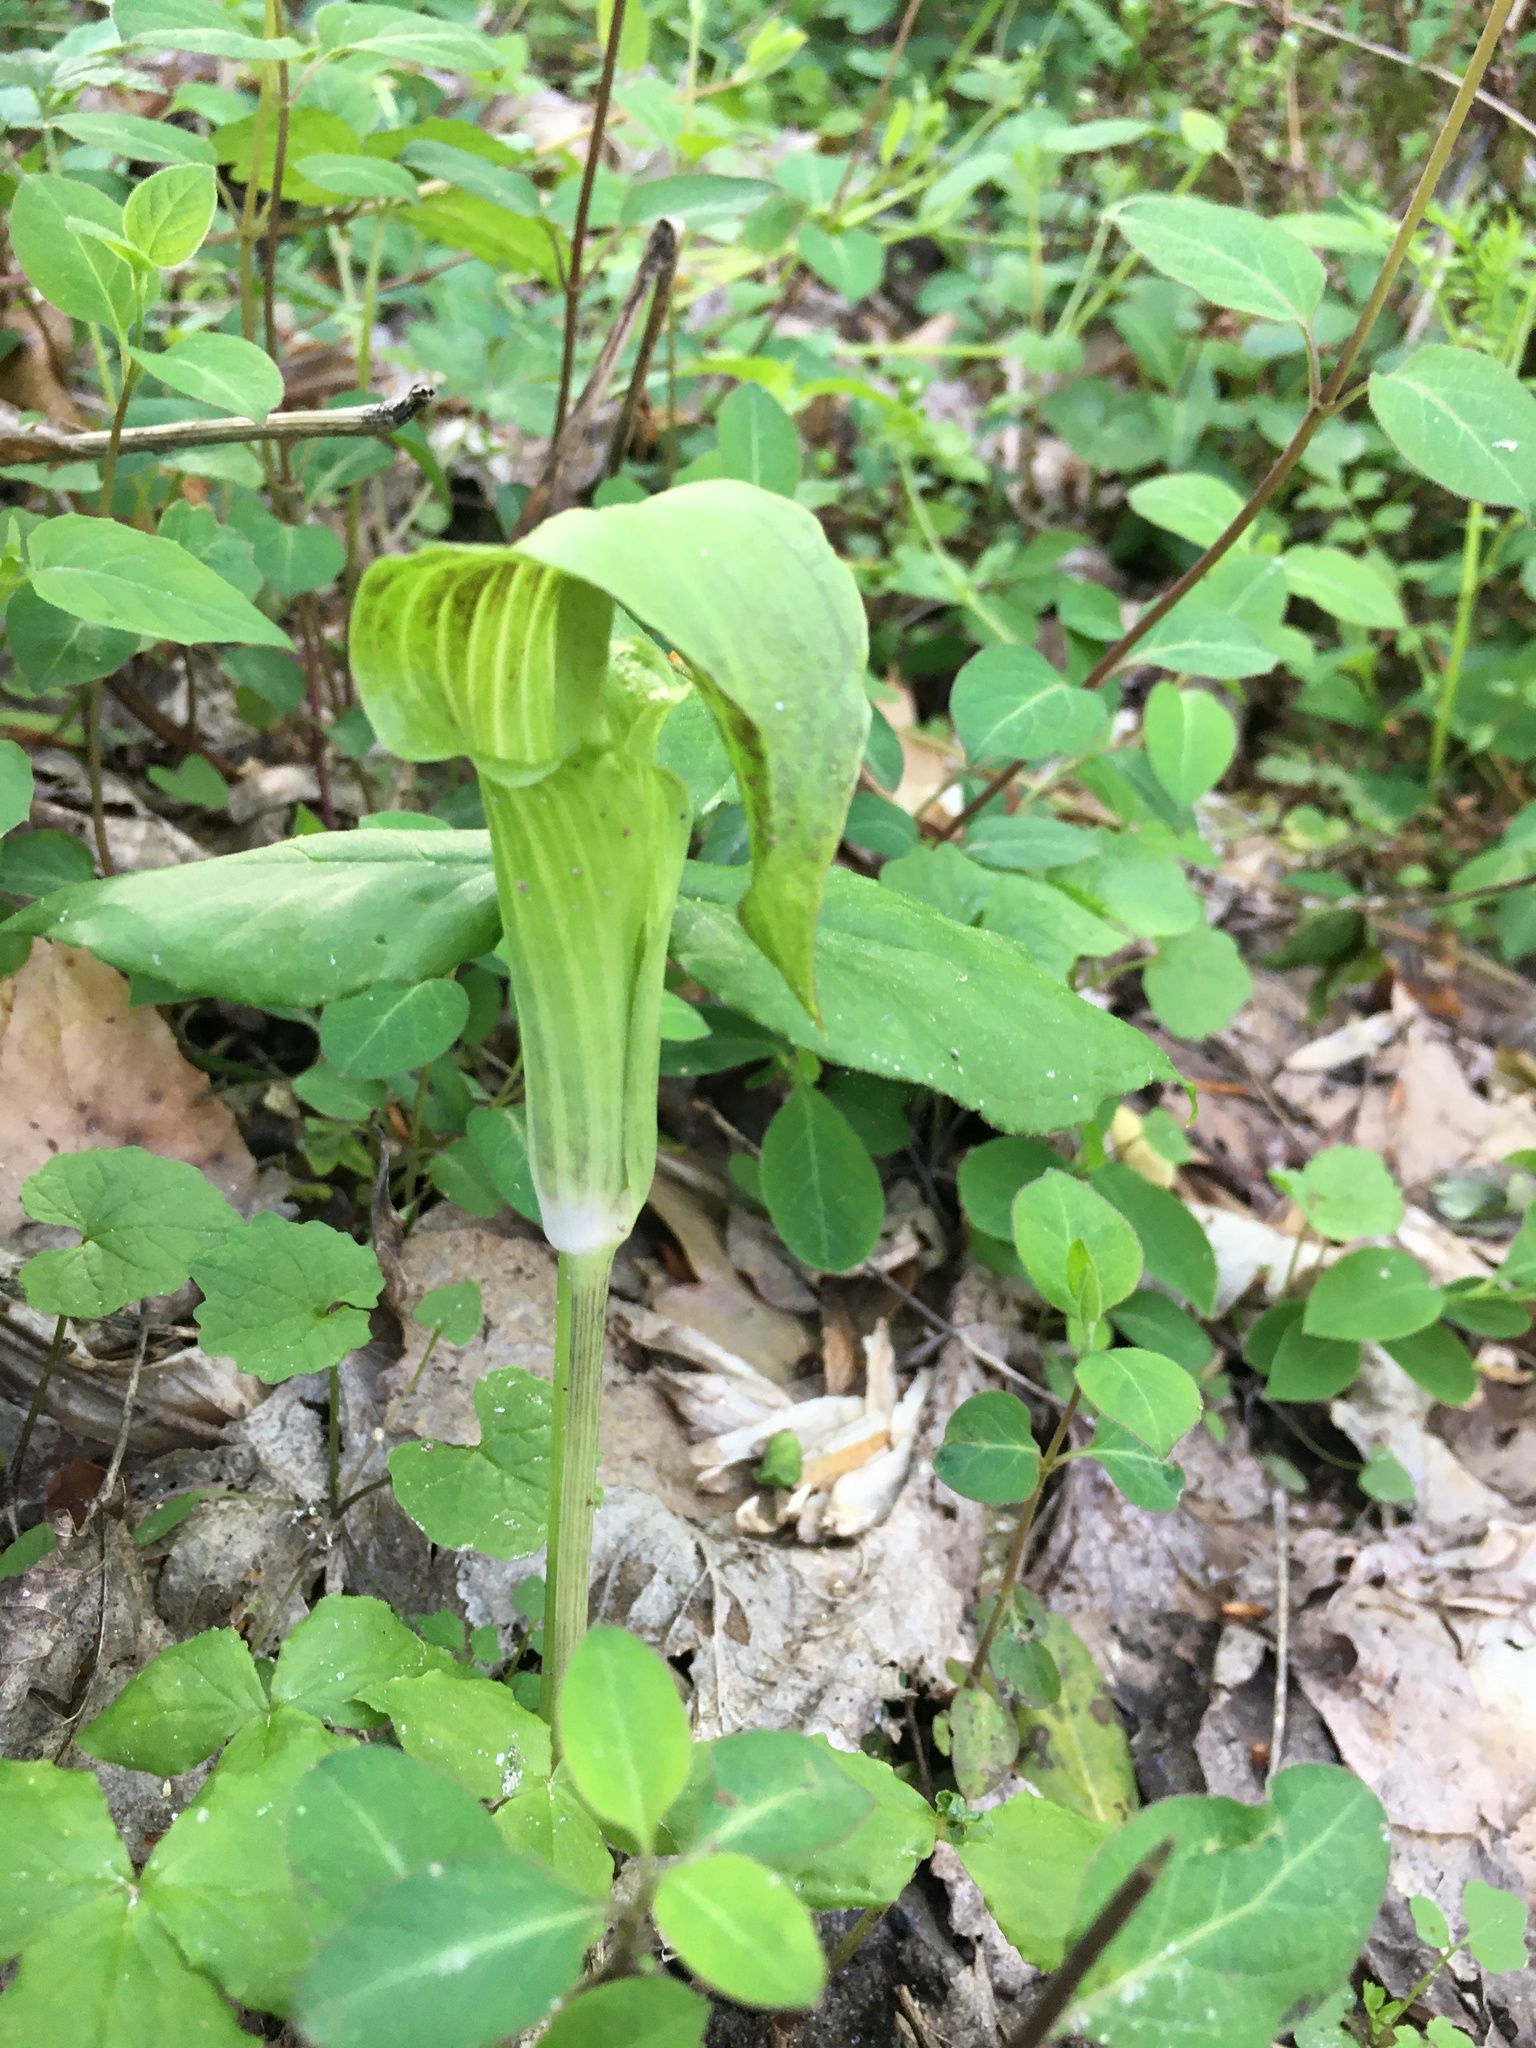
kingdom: Plantae
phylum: Tracheophyta
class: Liliopsida
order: Alismatales
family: Araceae
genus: Arisaema
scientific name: Arisaema triphyllum
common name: Jack-in-the-pulpit
